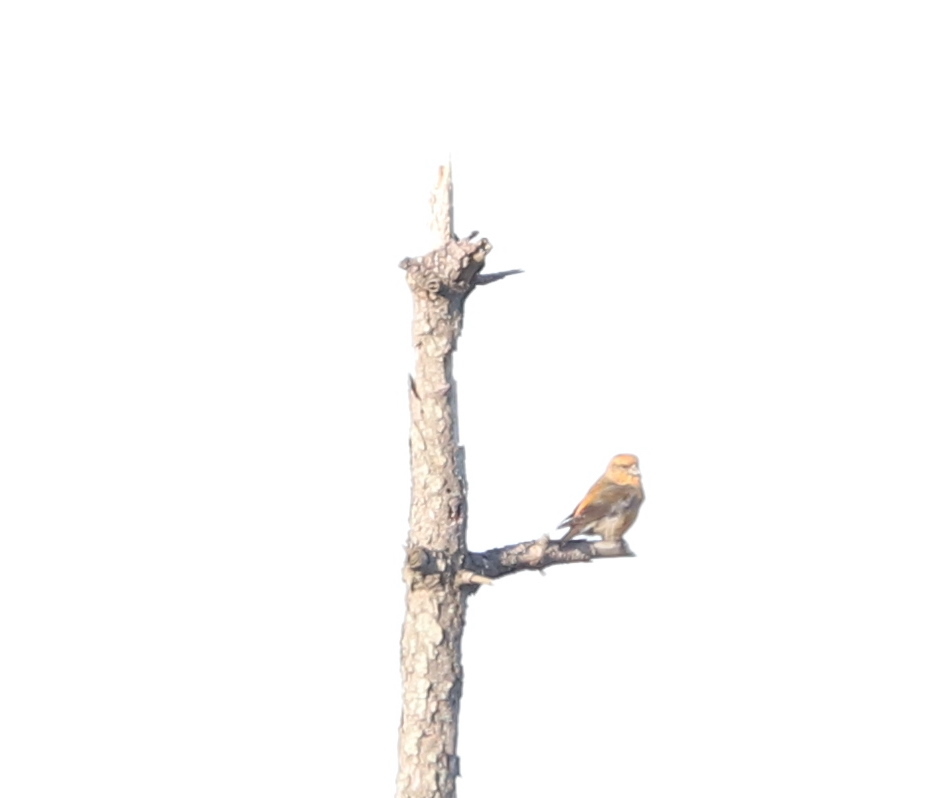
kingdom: Animalia
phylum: Chordata
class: Aves
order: Passeriformes
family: Fringillidae
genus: Loxia
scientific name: Loxia curvirostra
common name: Red crossbill
